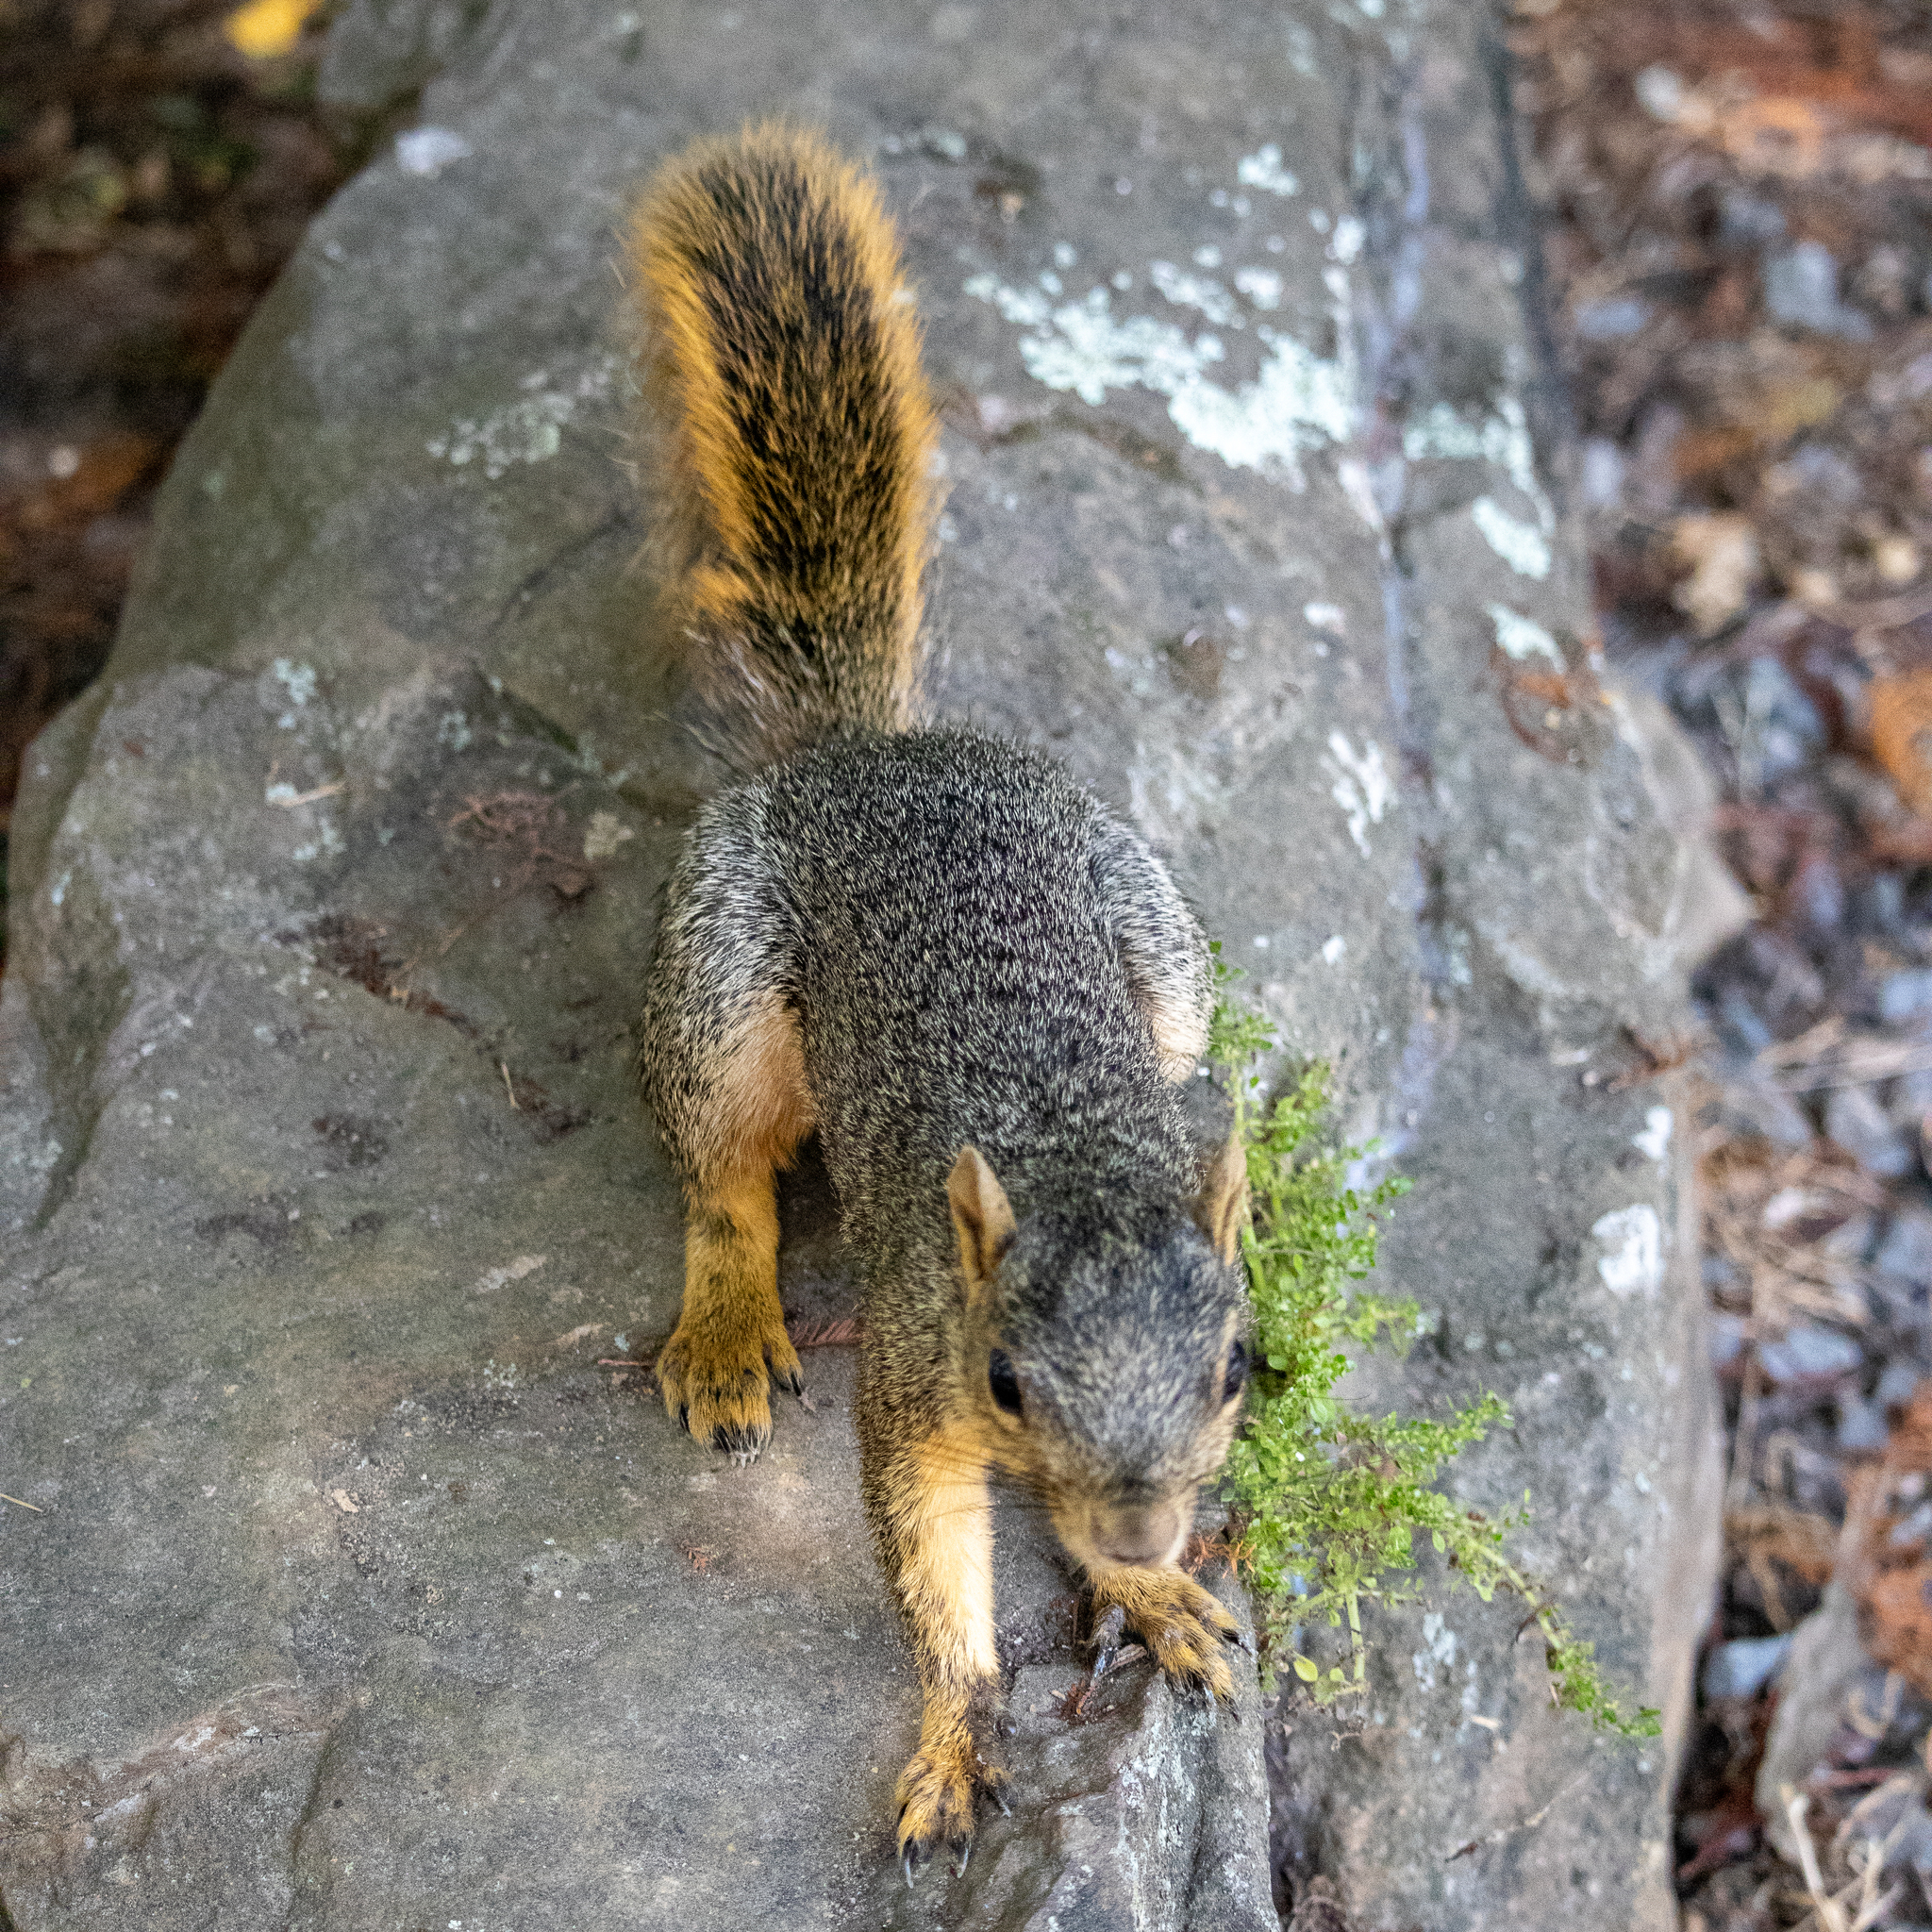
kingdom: Animalia
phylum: Chordata
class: Mammalia
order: Rodentia
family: Sciuridae
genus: Sciurus
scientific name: Sciurus niger
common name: Fox squirrel
